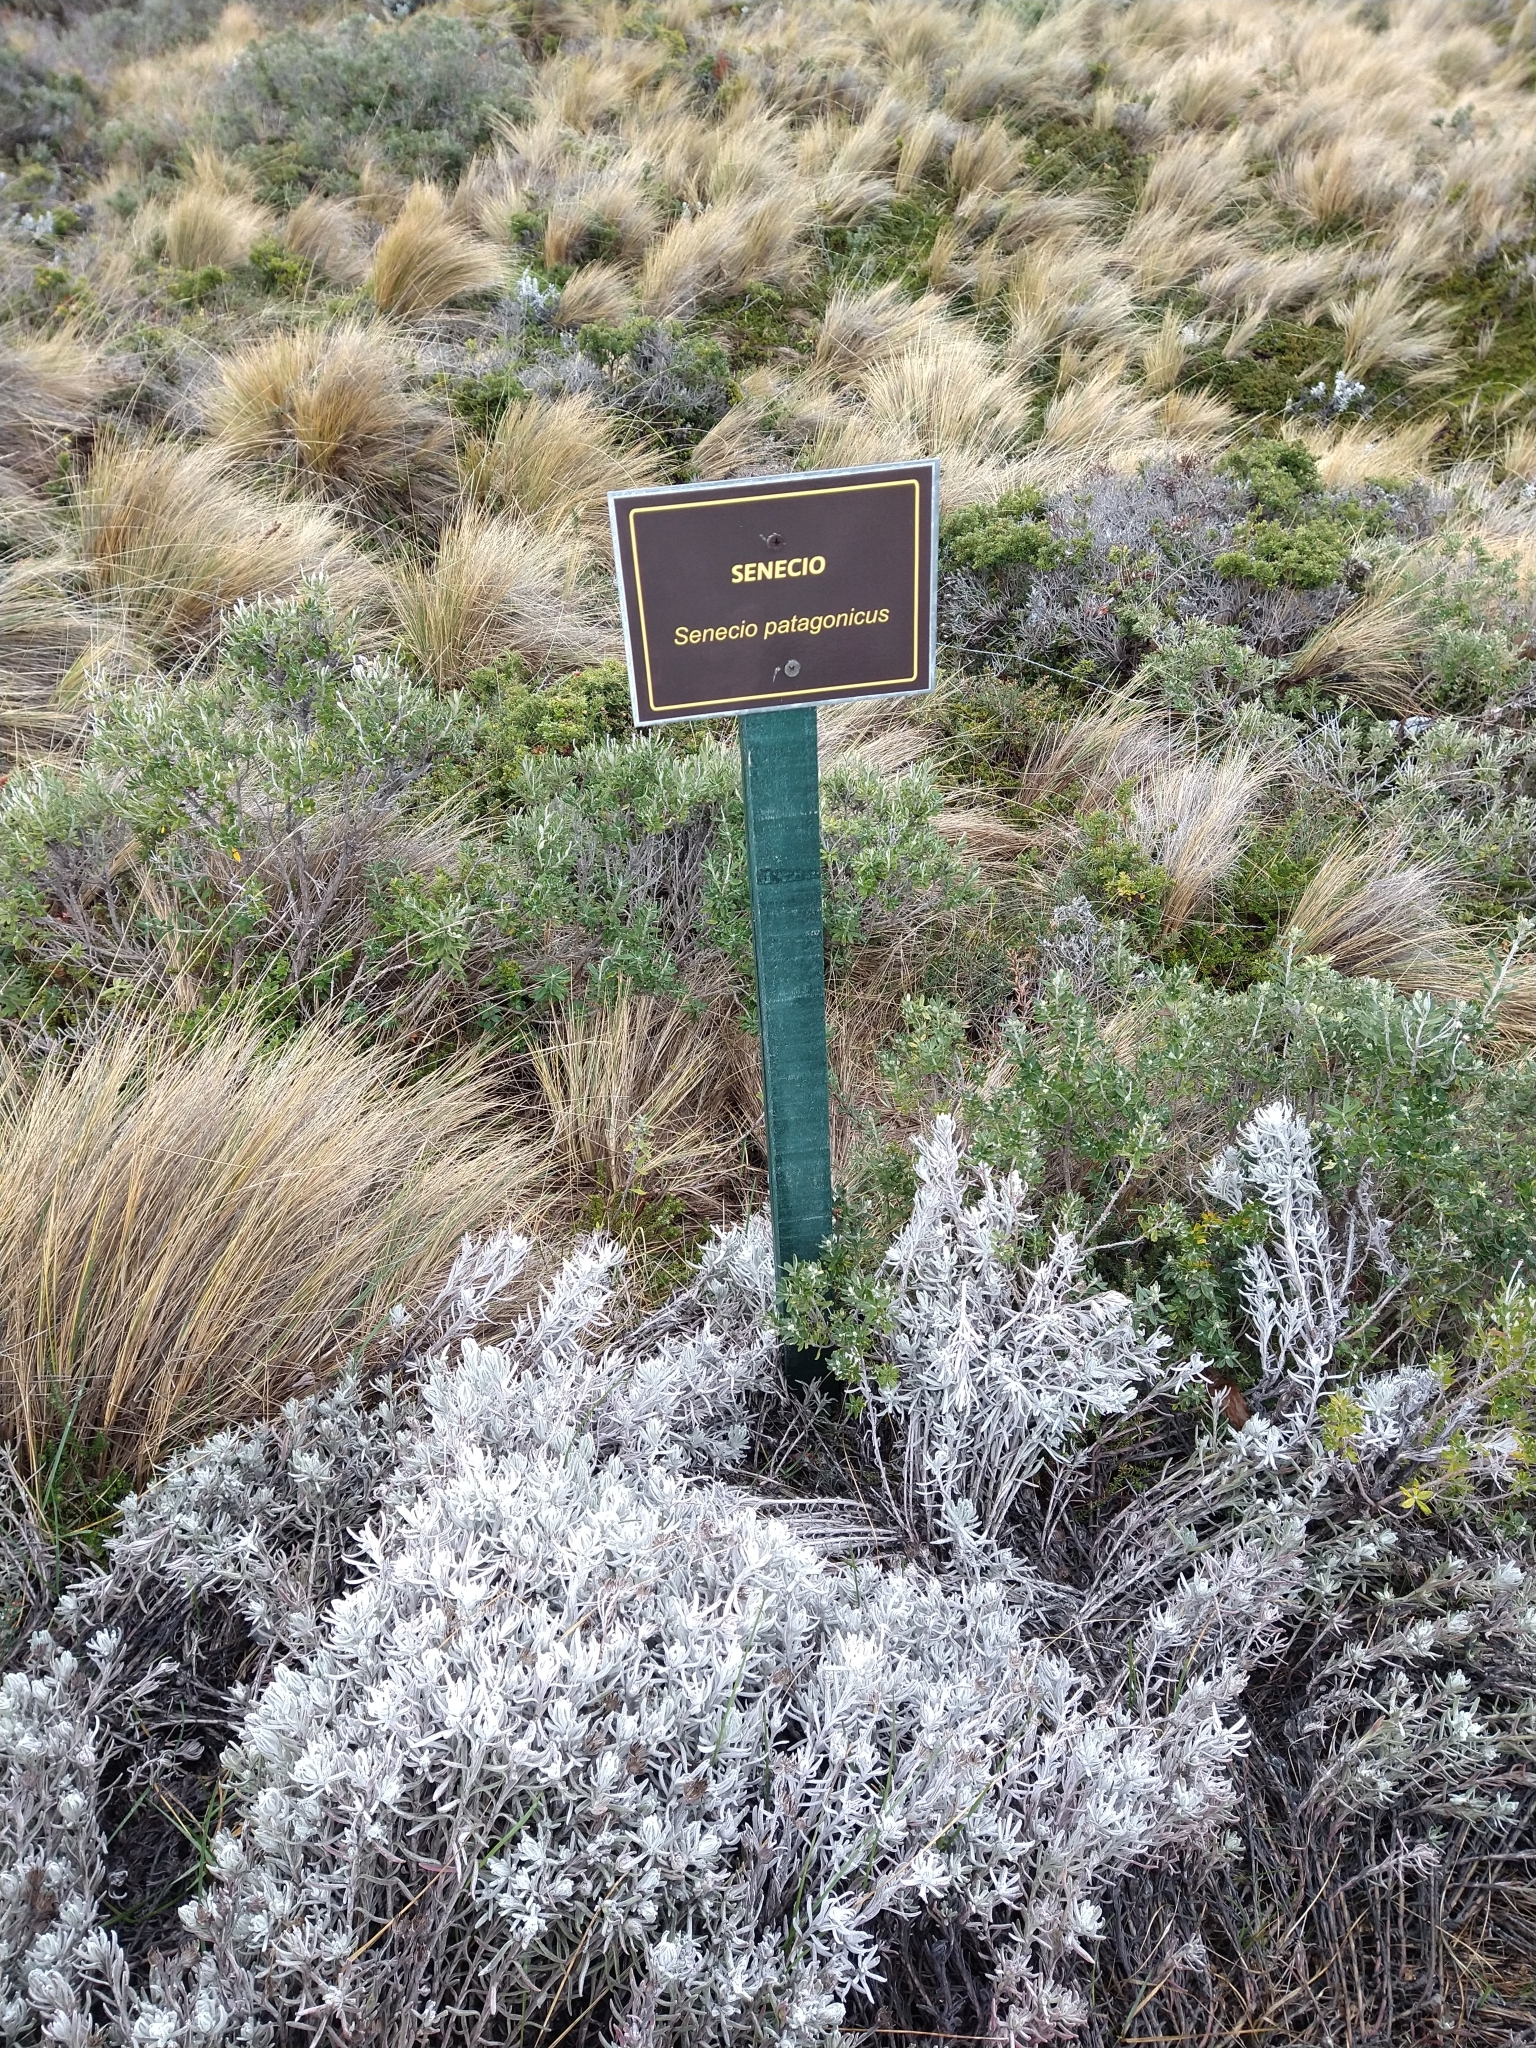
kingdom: Plantae
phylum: Tracheophyta
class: Magnoliopsida
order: Asterales
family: Asteraceae
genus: Senecio
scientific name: Senecio patagonicus
